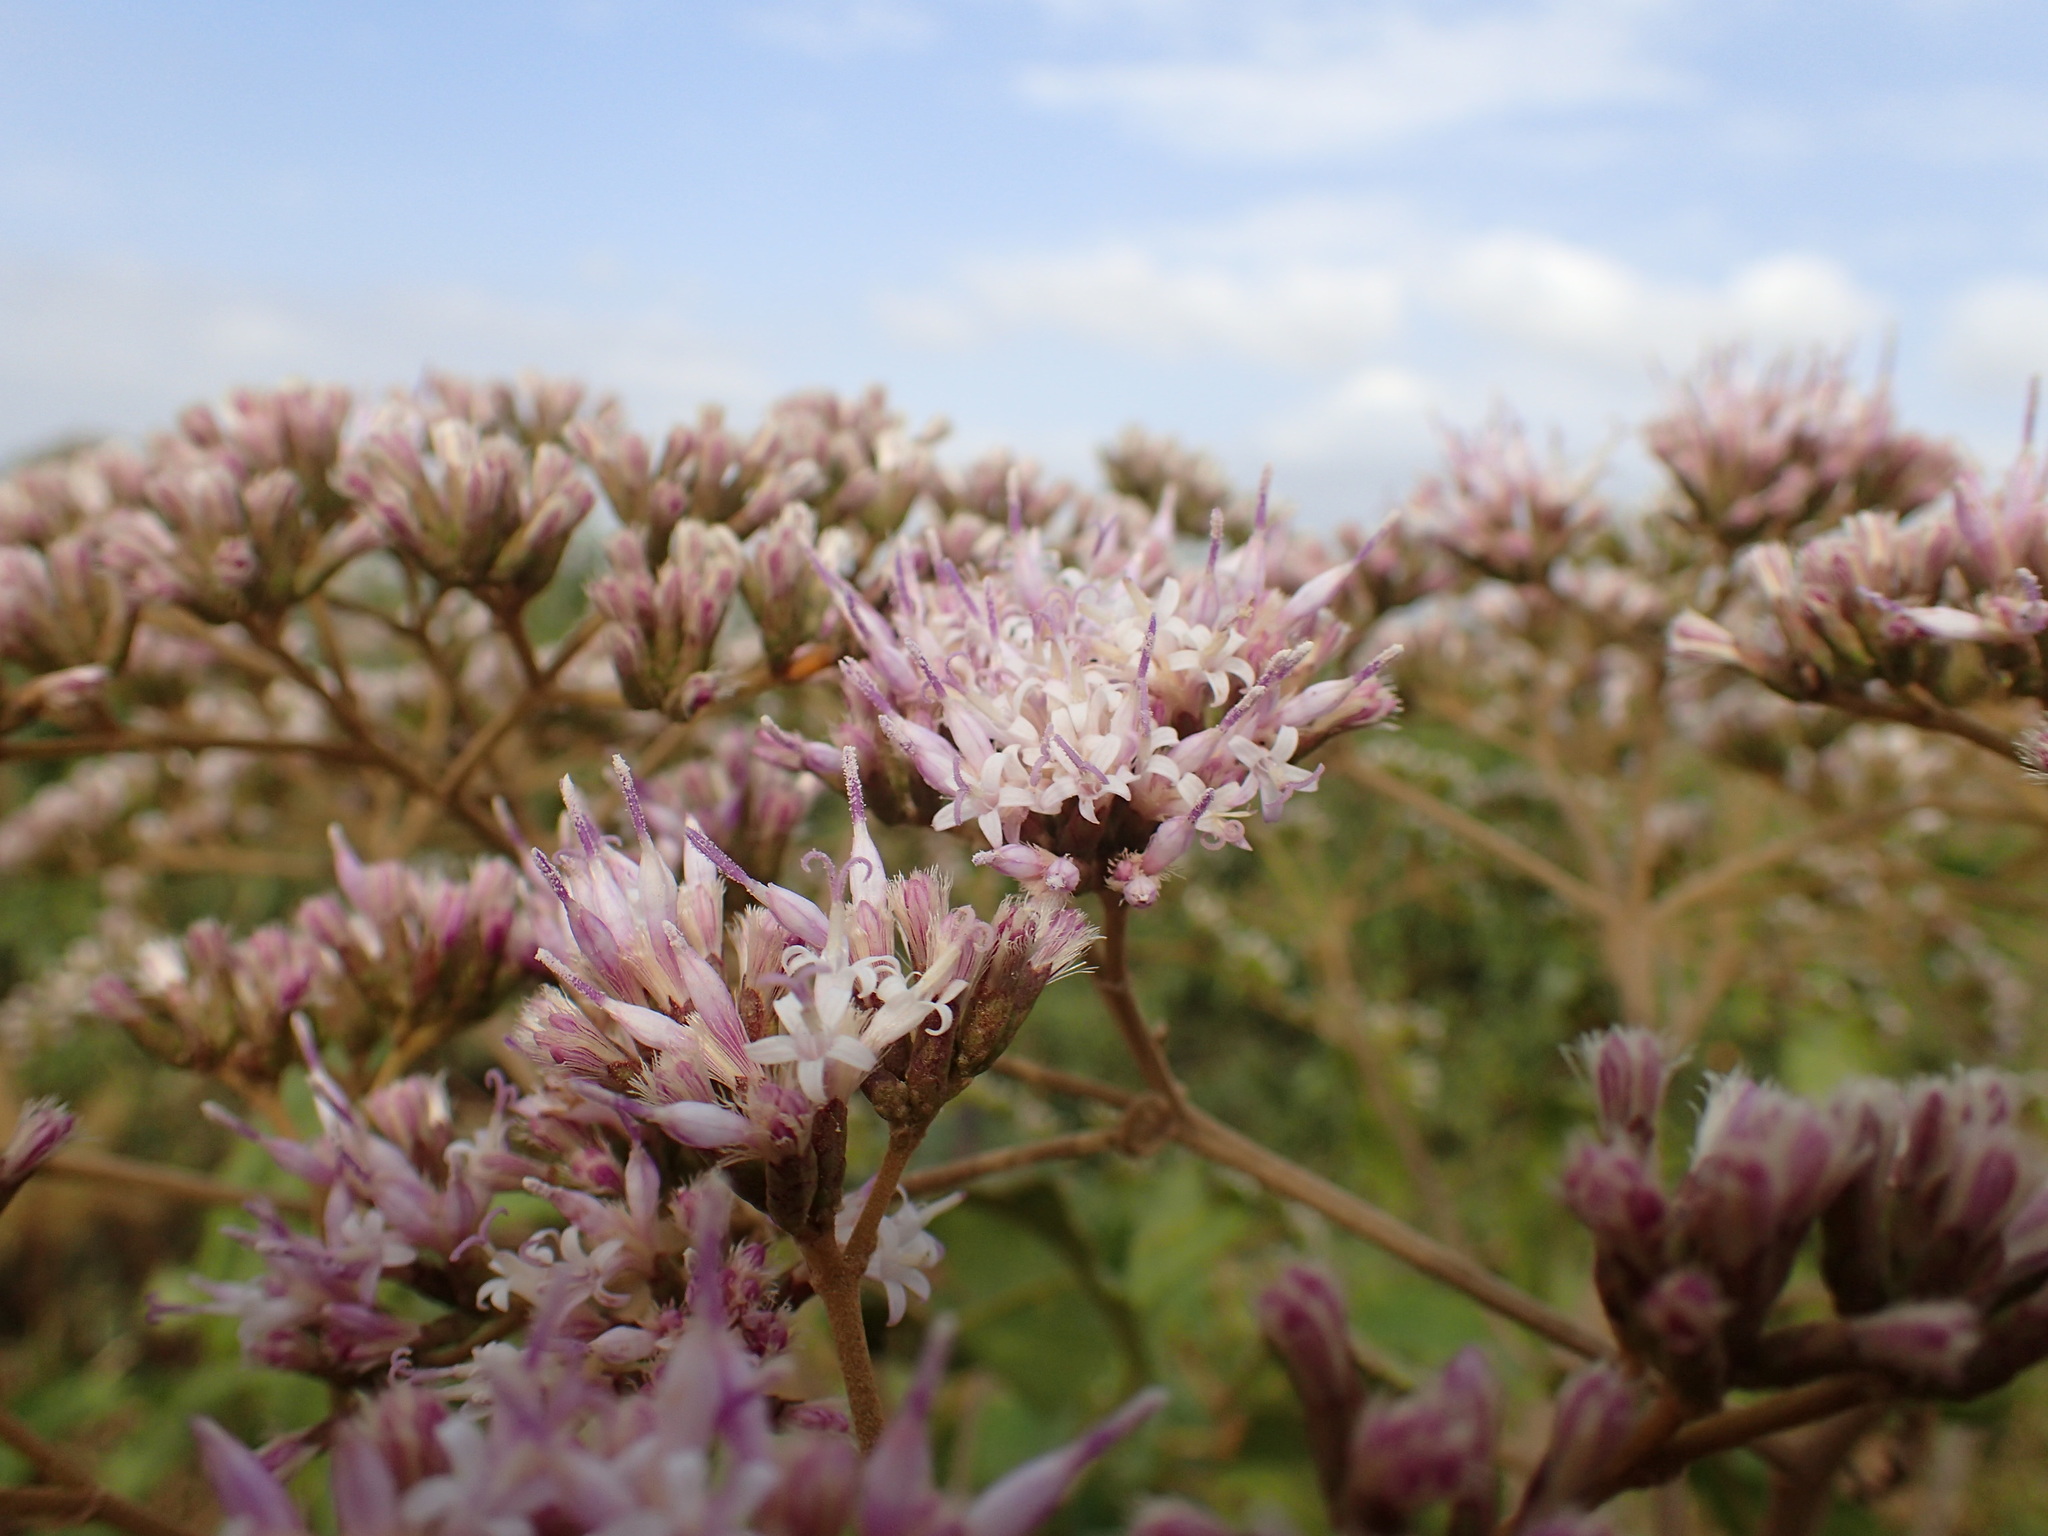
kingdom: Plantae
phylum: Tracheophyta
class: Magnoliopsida
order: Asterales
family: Asteraceae
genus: Gymnanthemum
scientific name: Gymnanthemum myrianthum
